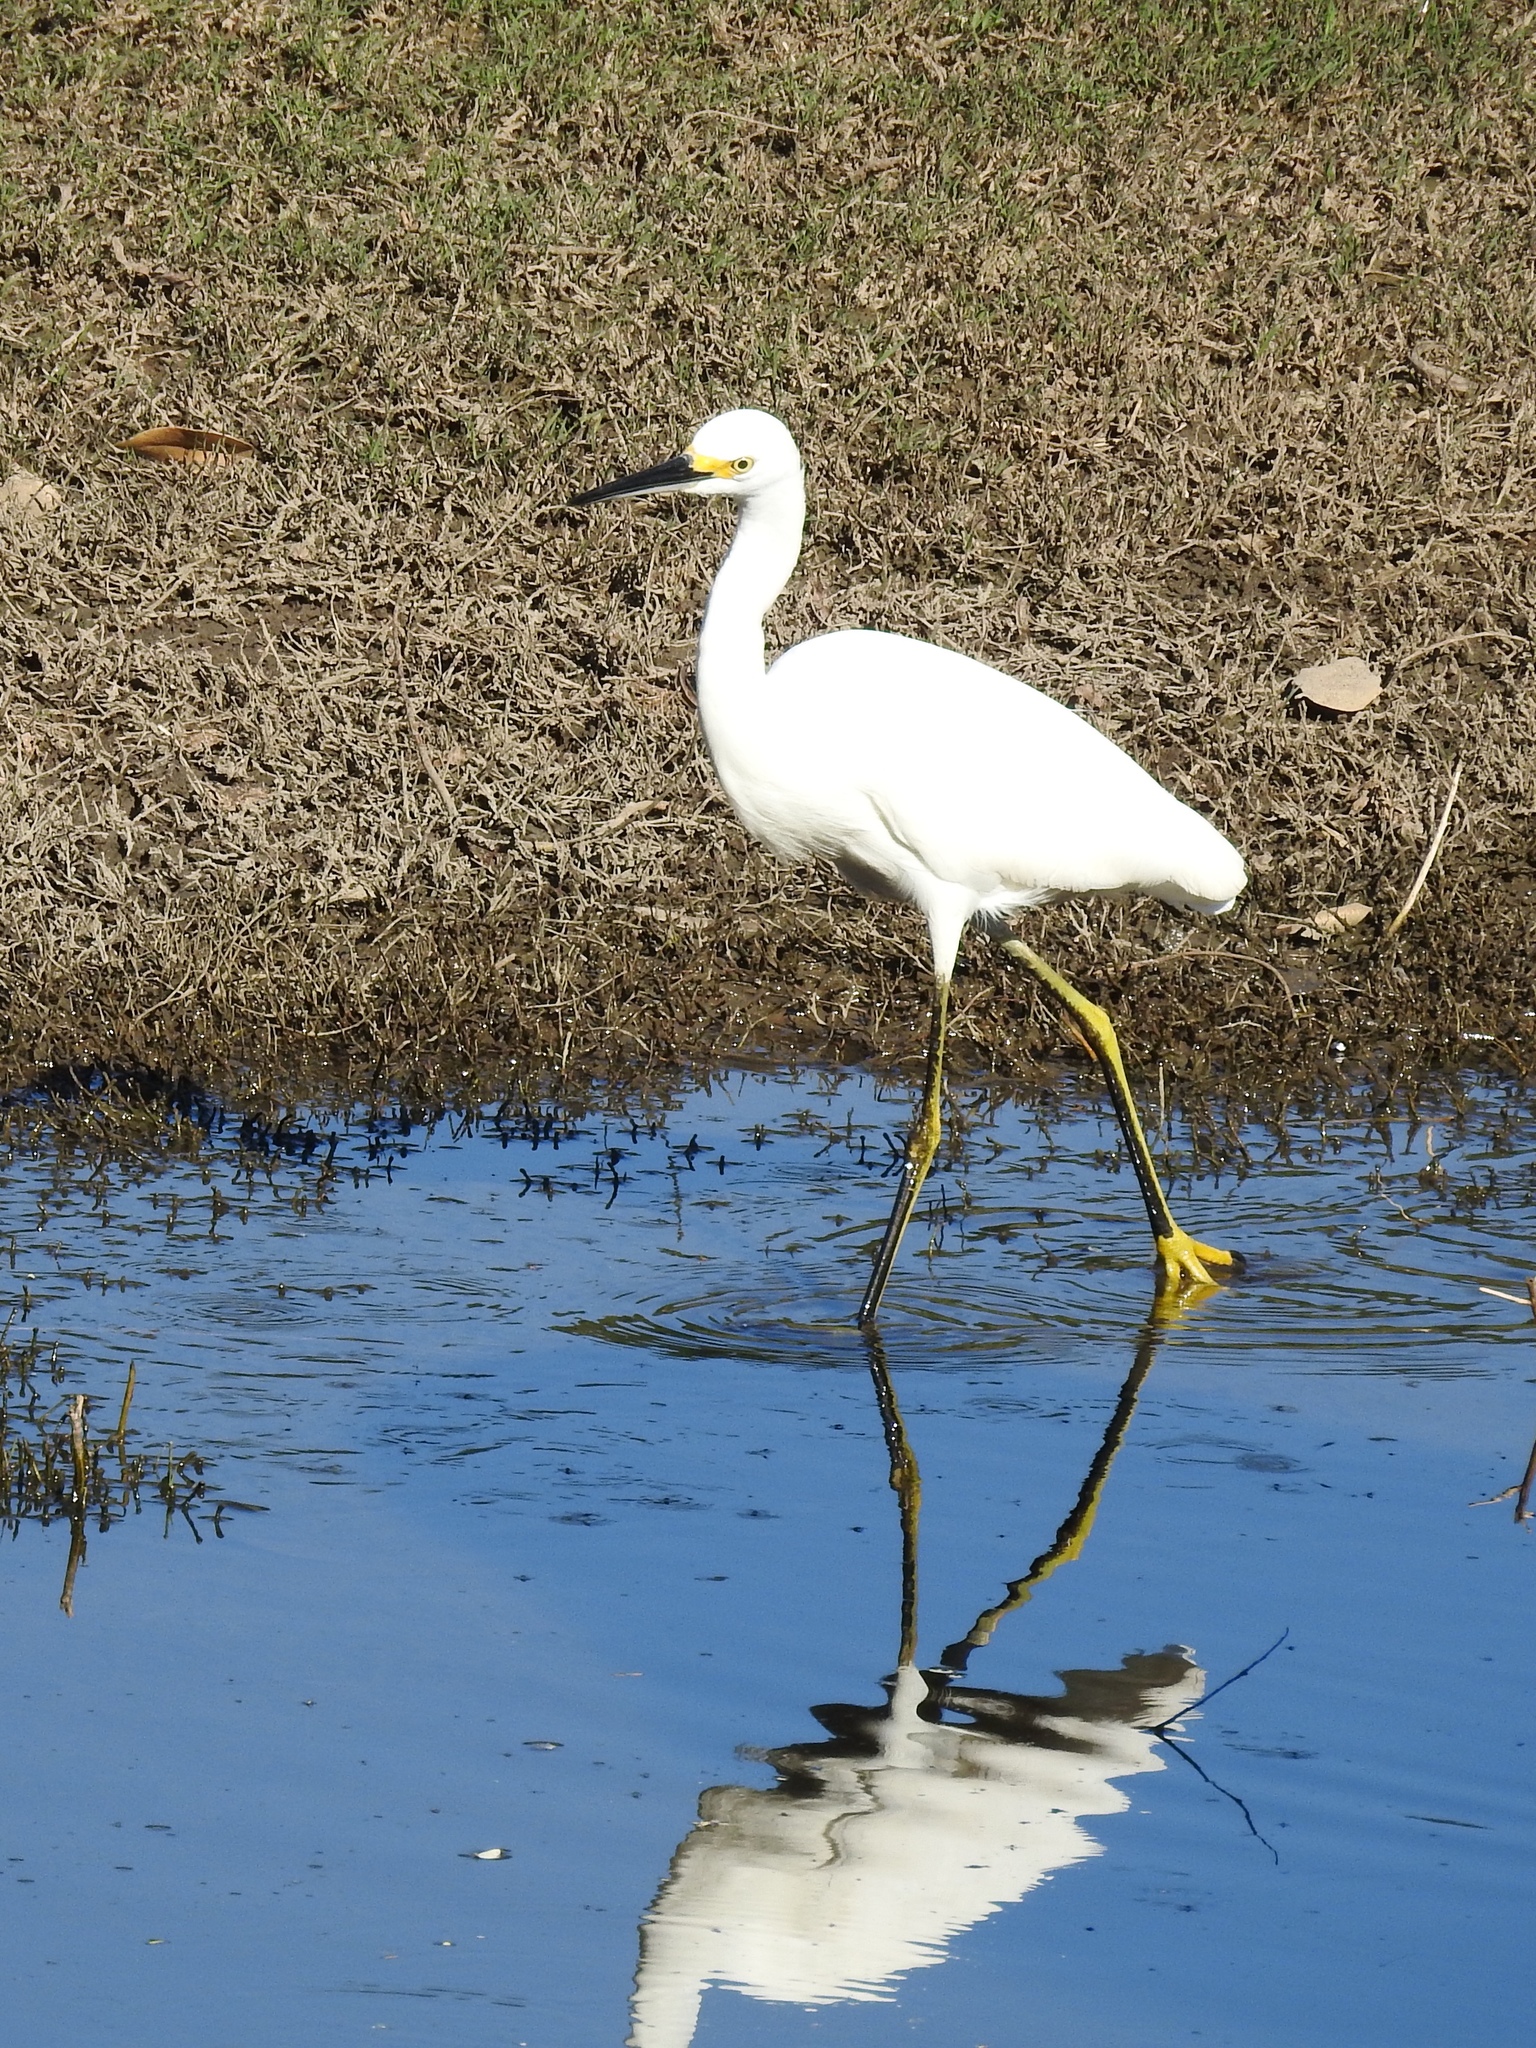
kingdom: Animalia
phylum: Chordata
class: Aves
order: Pelecaniformes
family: Ardeidae
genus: Egretta
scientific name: Egretta thula
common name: Snowy egret
